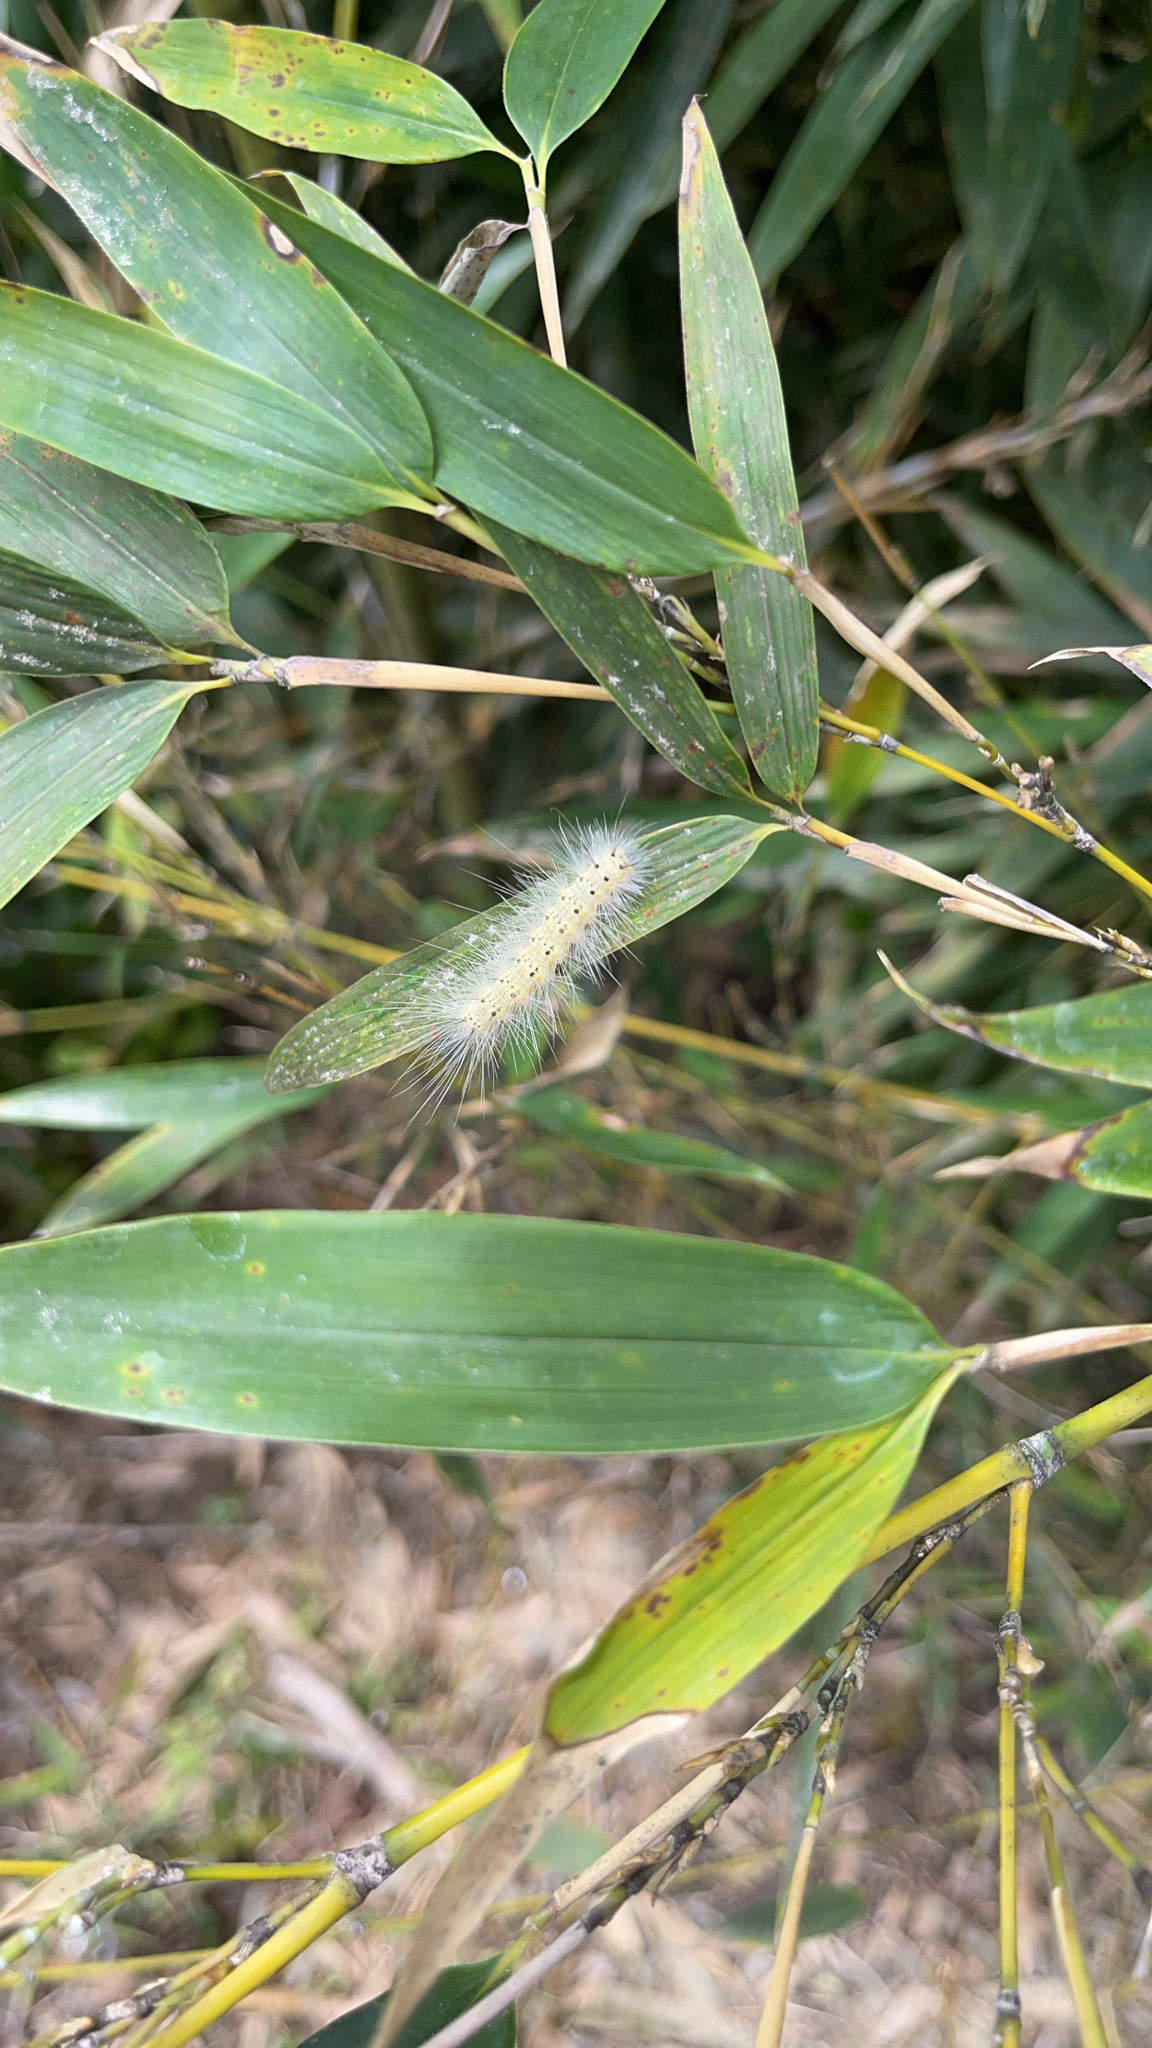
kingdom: Animalia
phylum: Arthropoda
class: Insecta
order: Lepidoptera
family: Erebidae
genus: Hyphantria
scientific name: Hyphantria cunea
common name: American white moth
